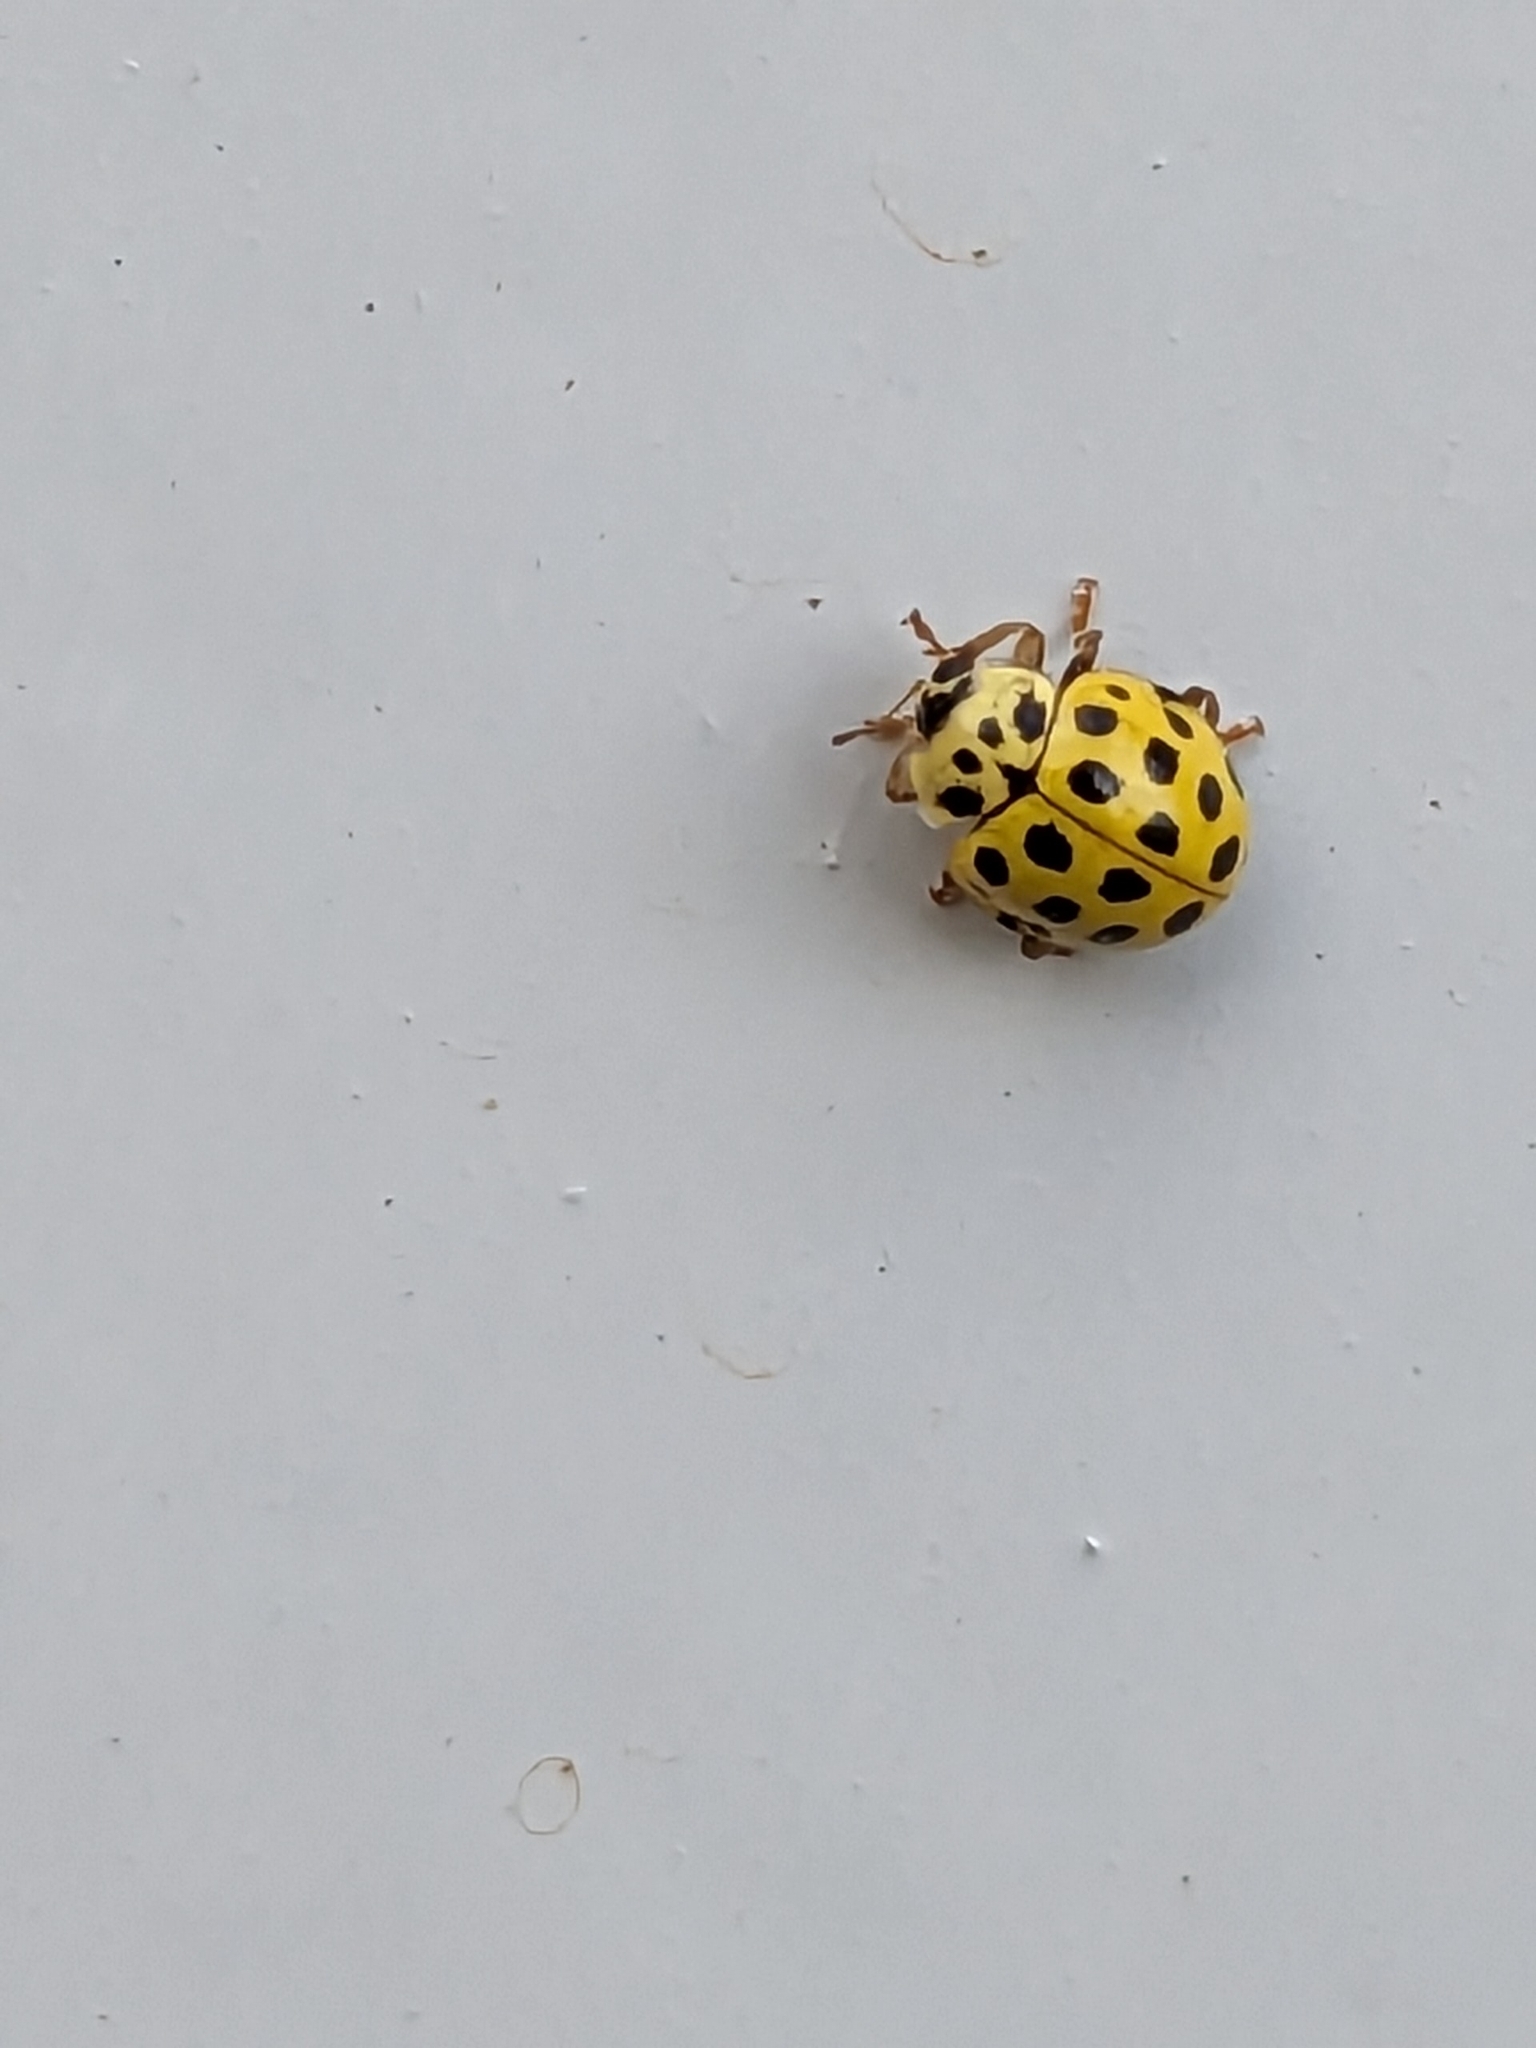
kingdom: Animalia
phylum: Arthropoda
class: Insecta
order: Coleoptera
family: Coccinellidae
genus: Psyllobora
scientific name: Psyllobora vigintiduopunctata
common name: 22-spot ladybird
